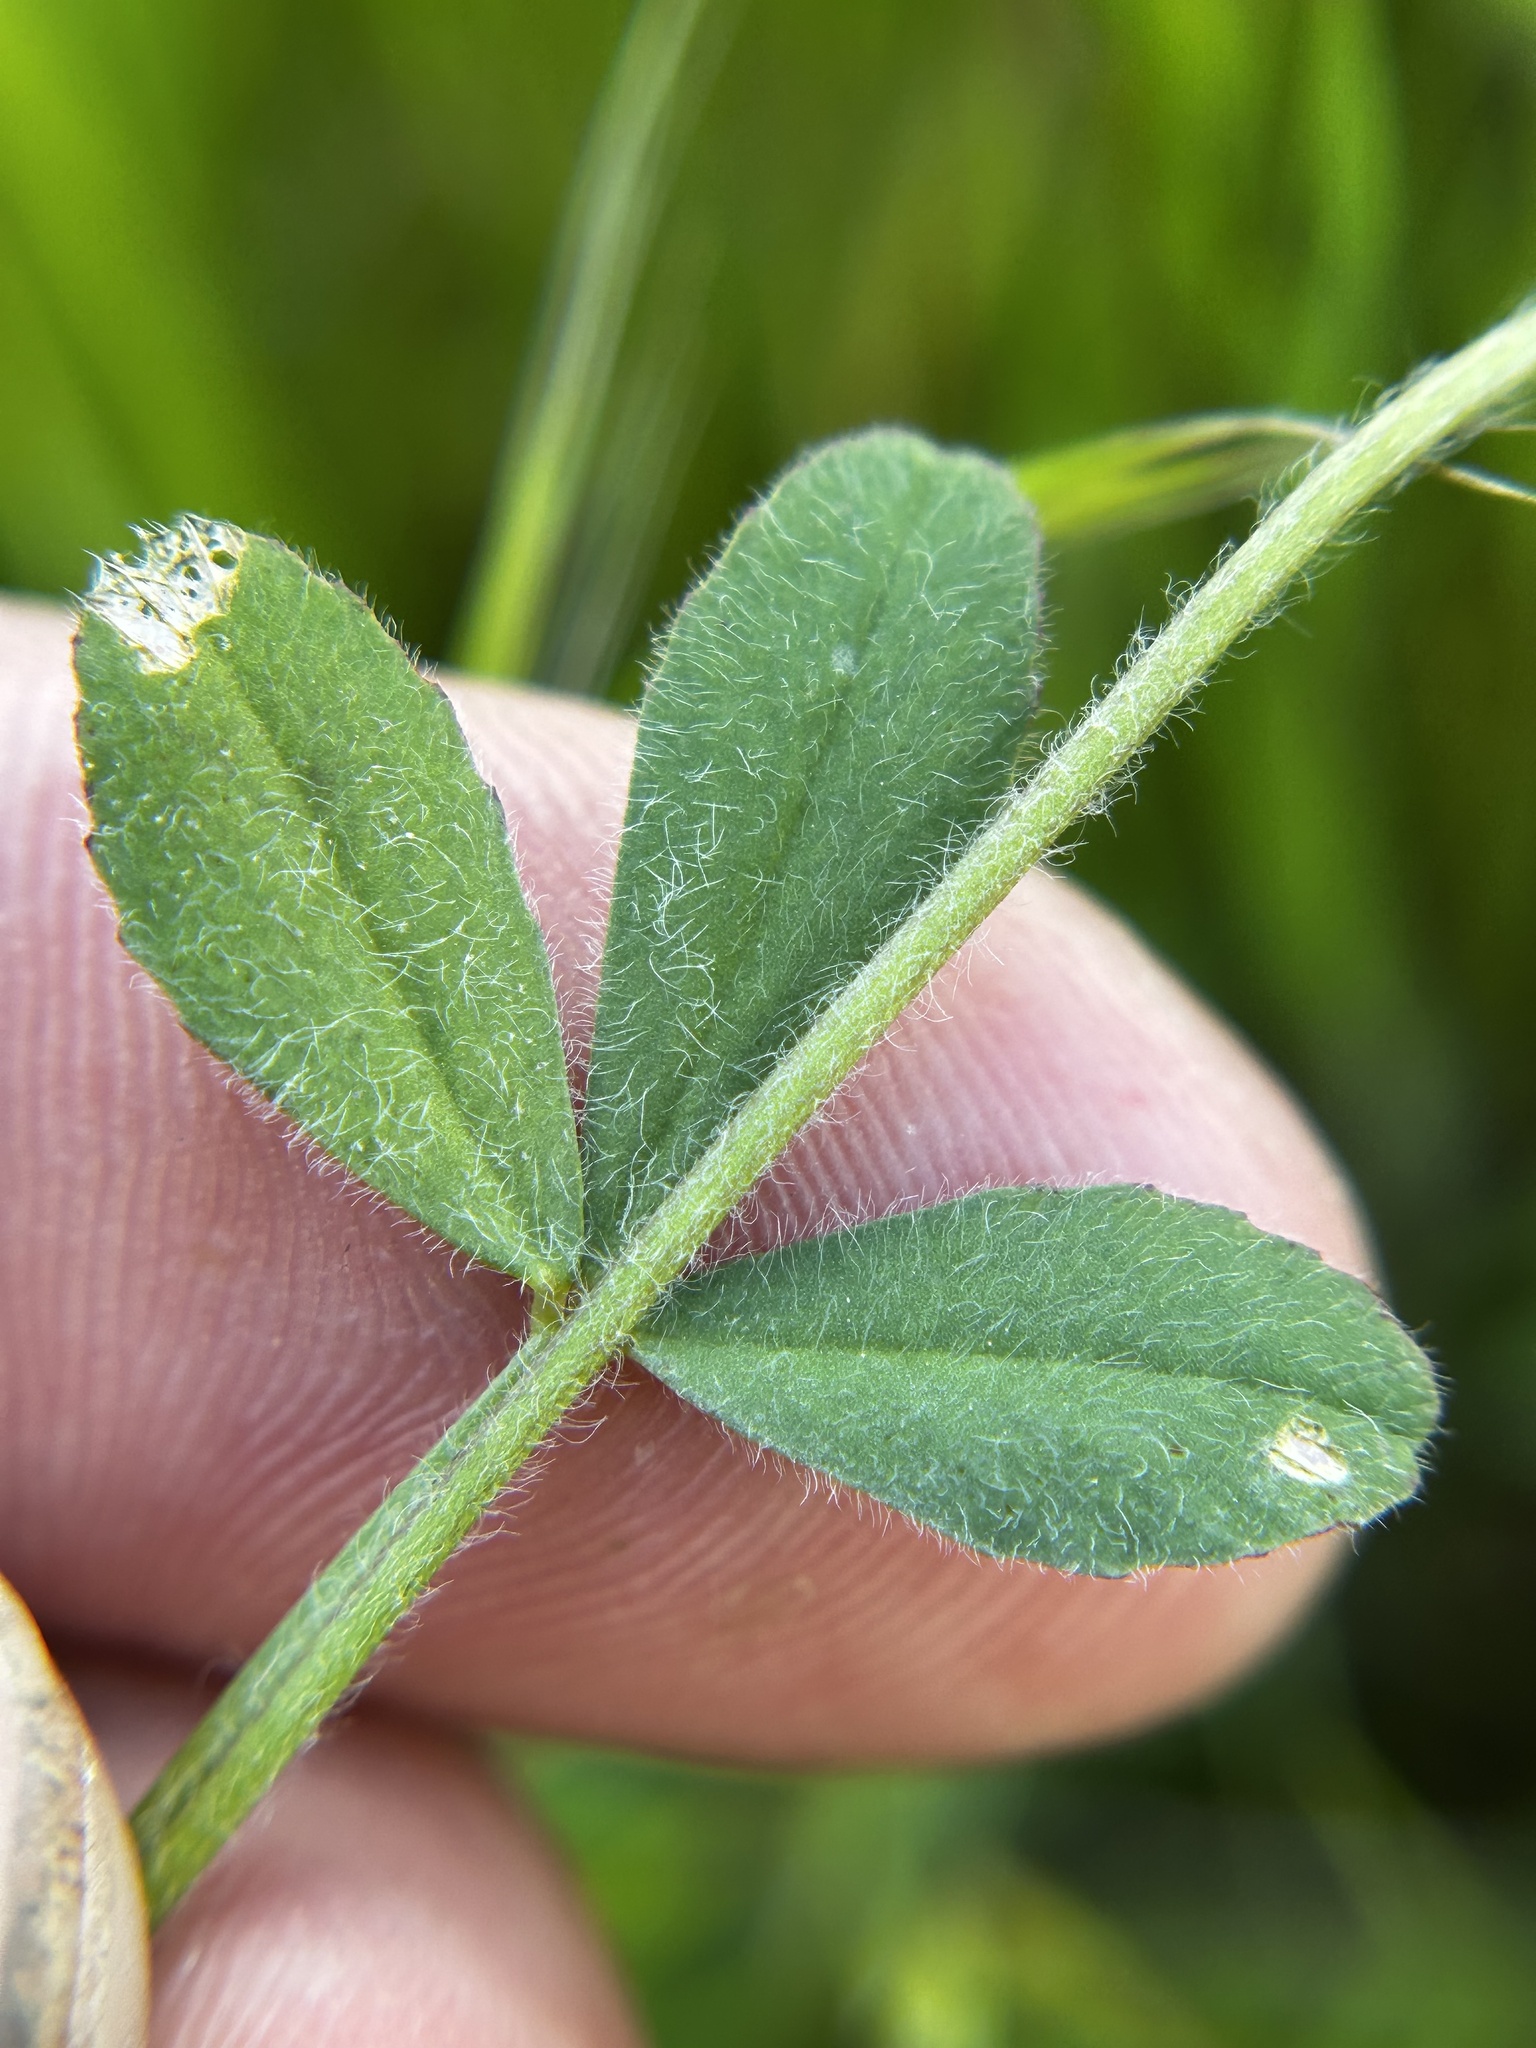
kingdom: Plantae
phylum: Tracheophyta
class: Magnoliopsida
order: Fabales
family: Fabaceae
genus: Trifolium
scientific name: Trifolium albopurpureum
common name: Rancheria clover
